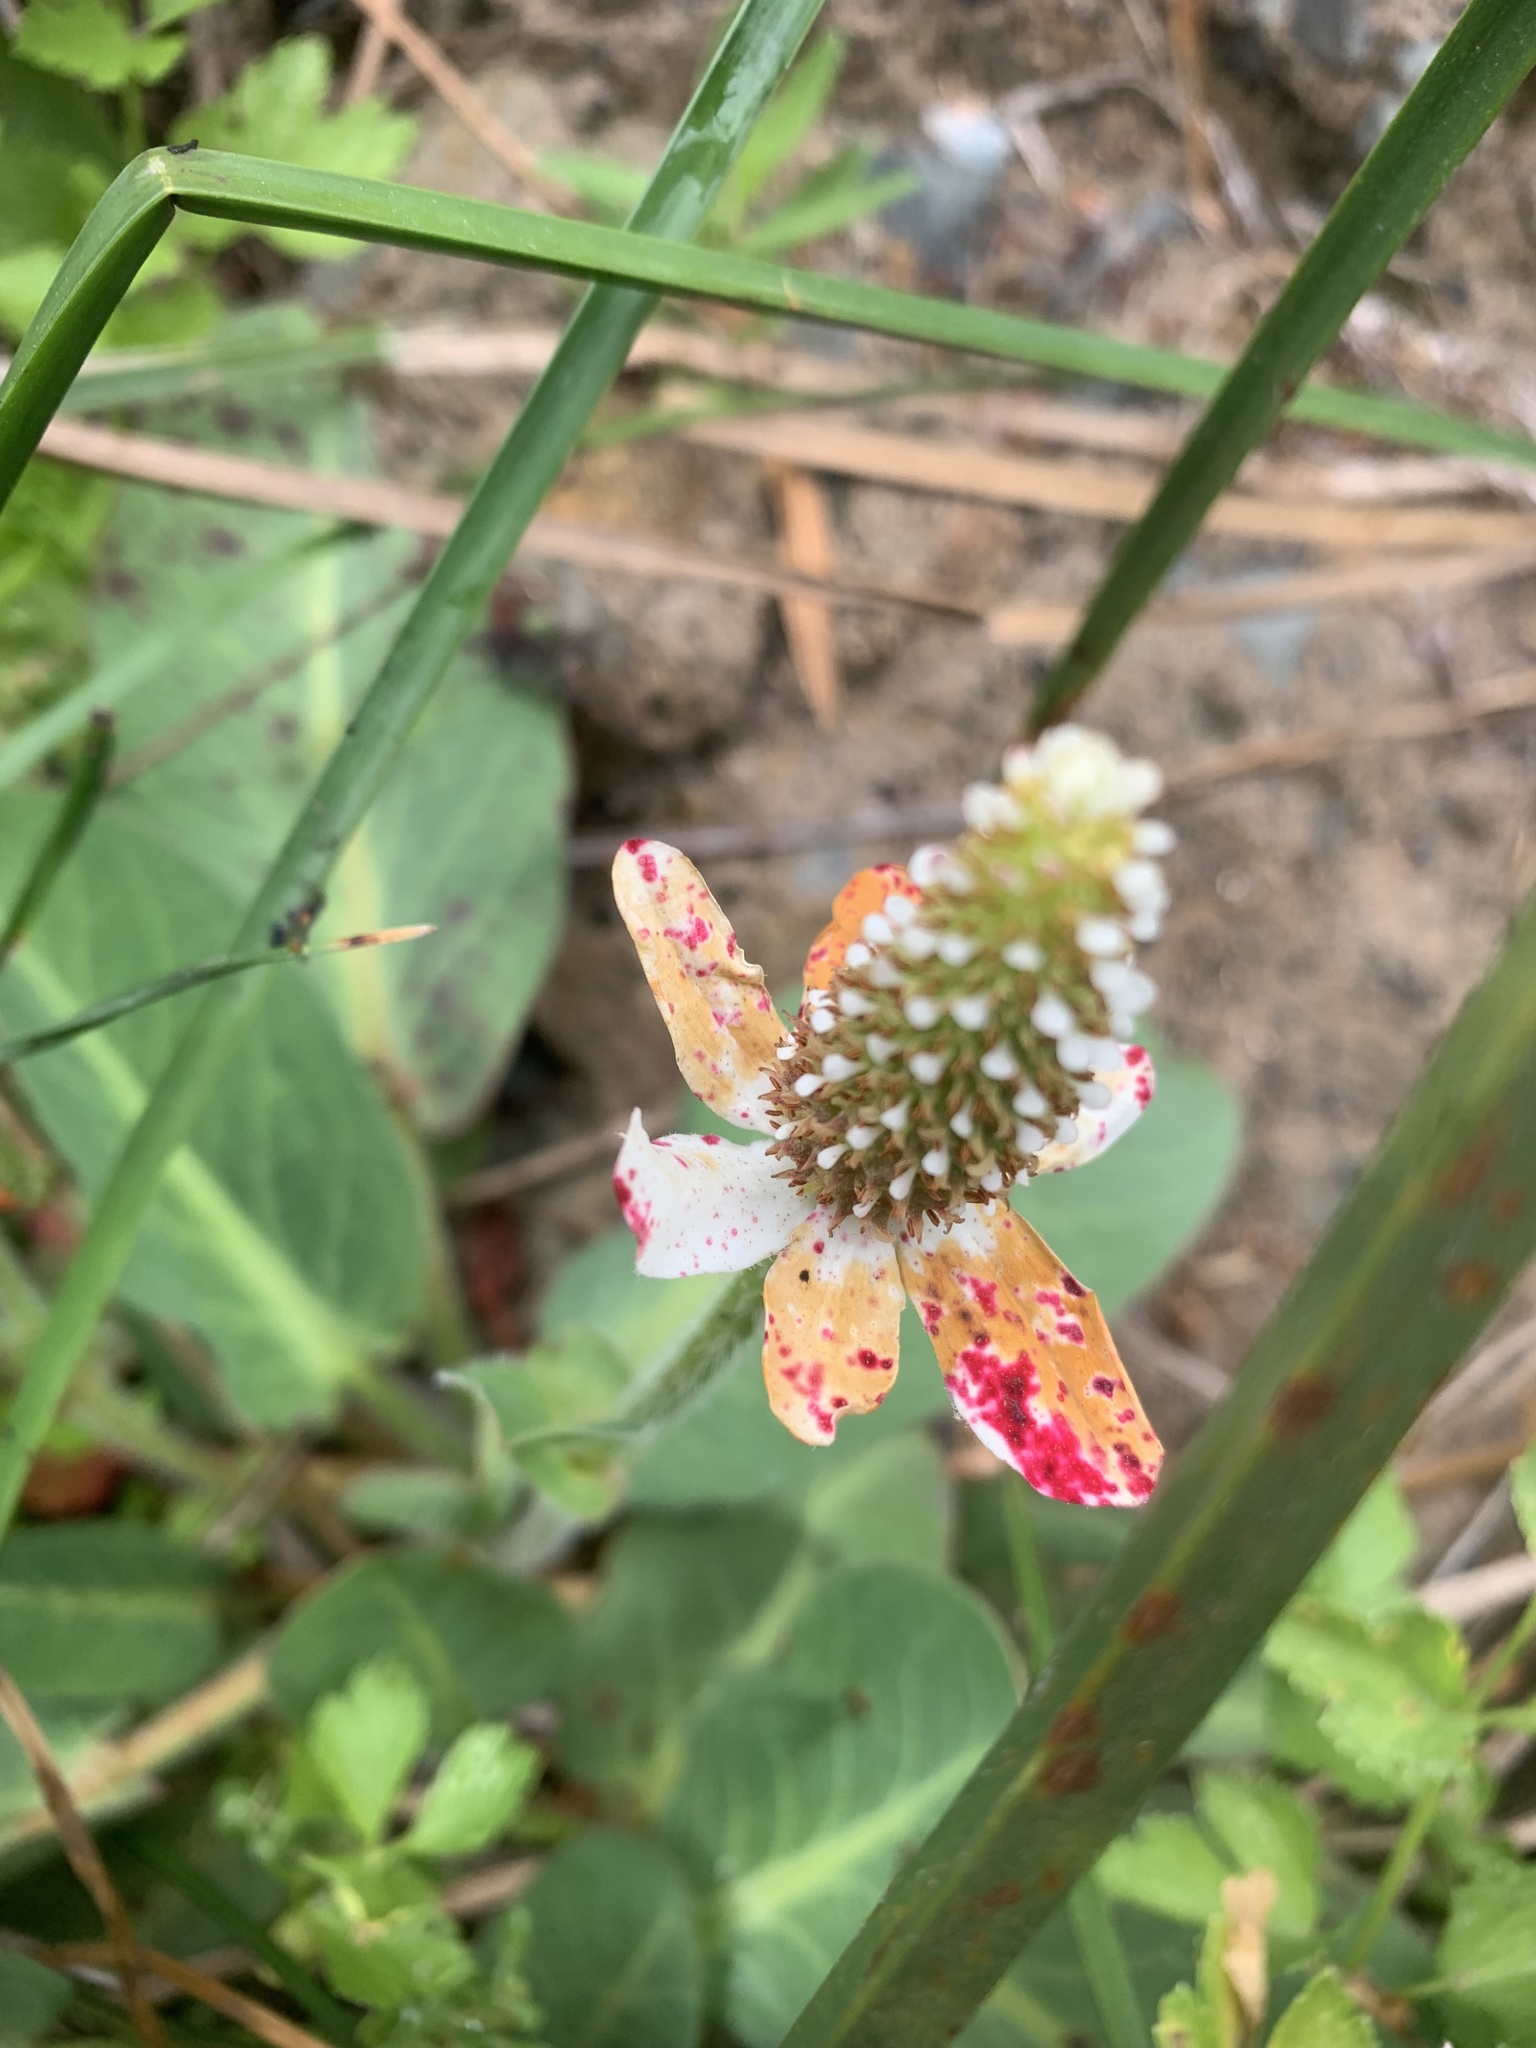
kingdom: Plantae
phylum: Tracheophyta
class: Magnoliopsida
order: Piperales
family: Saururaceae
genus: Anemopsis
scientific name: Anemopsis californica
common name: Apache-beads
